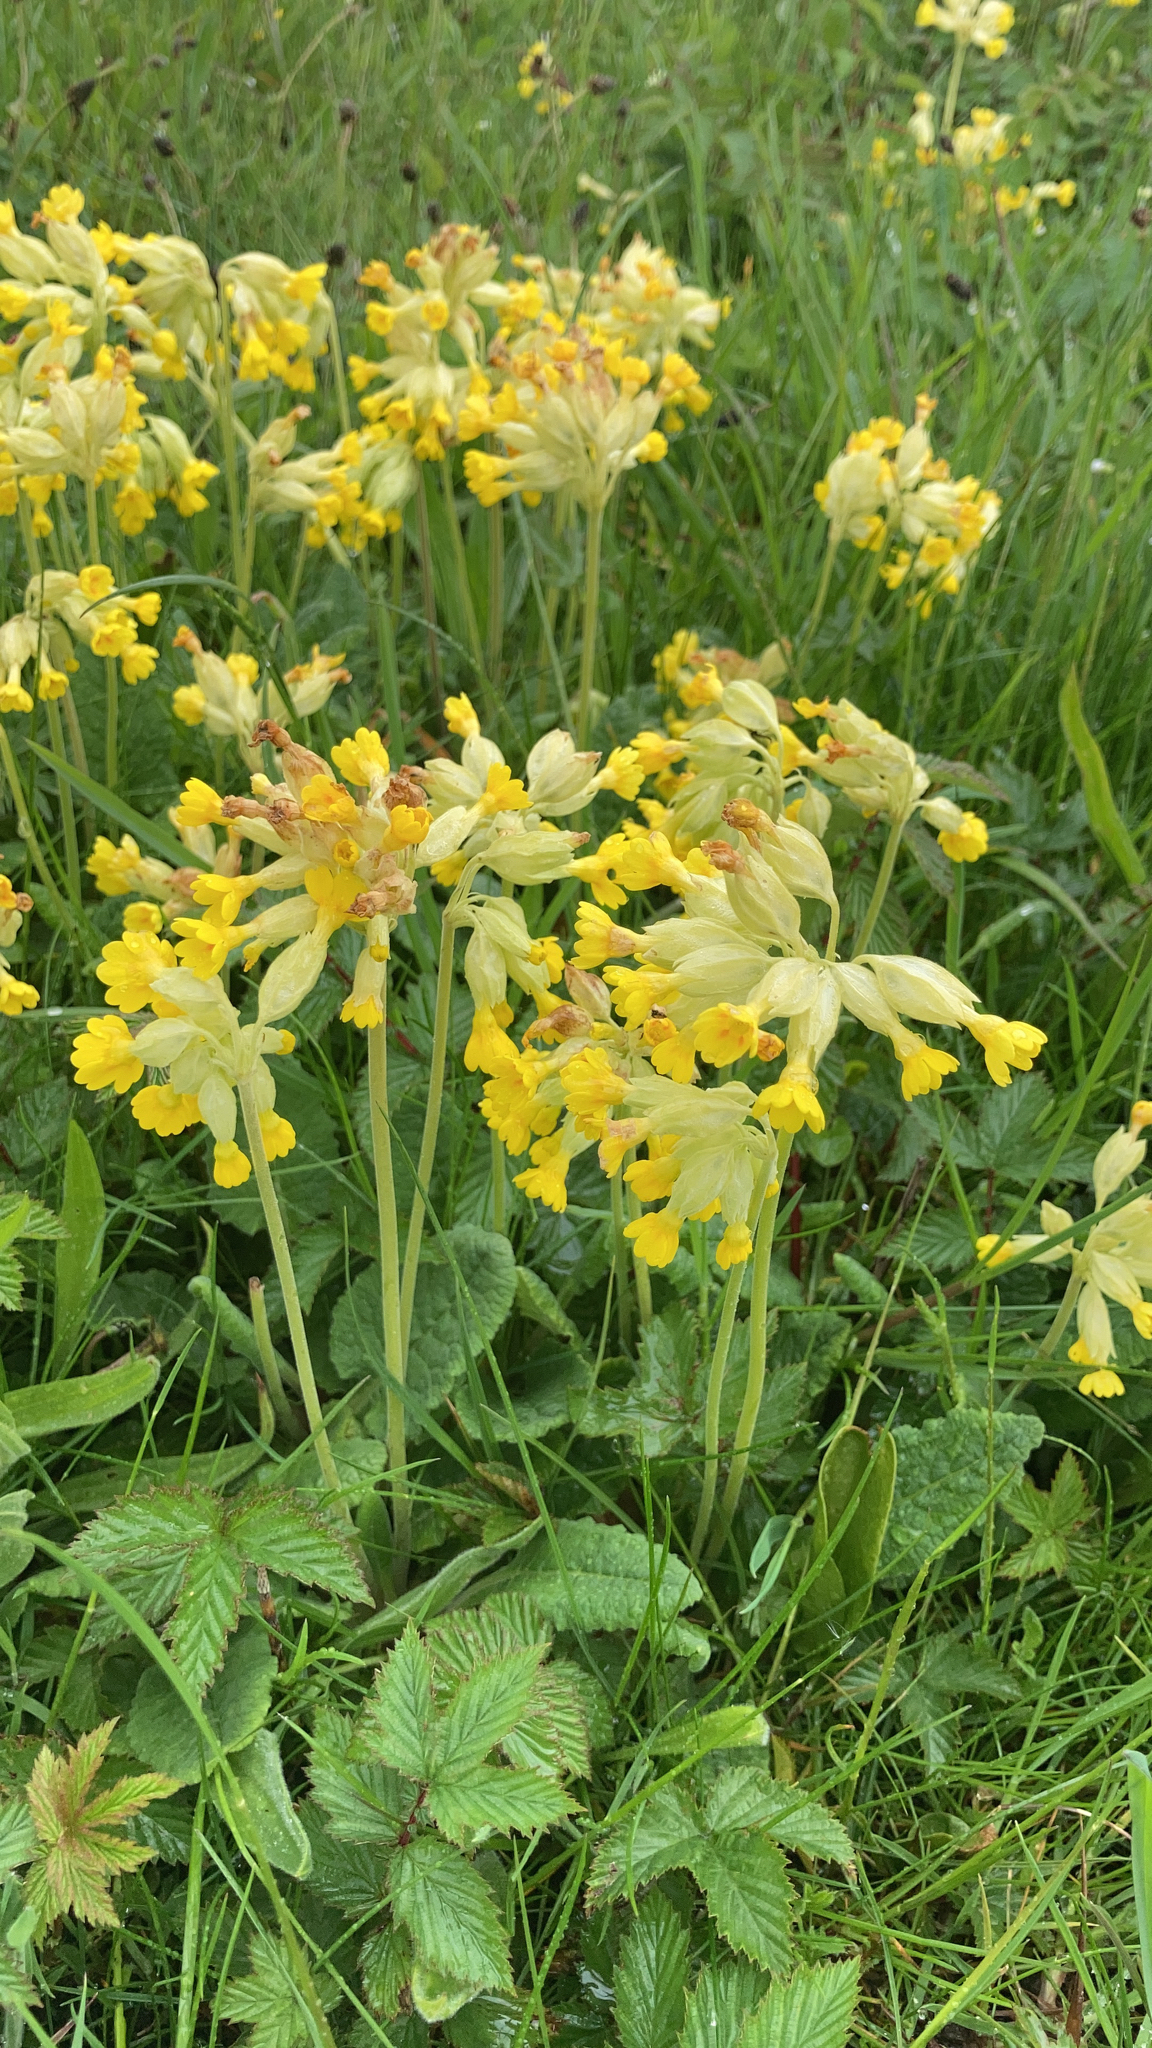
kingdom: Plantae
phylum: Tracheophyta
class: Magnoliopsida
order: Ericales
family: Primulaceae
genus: Primula
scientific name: Primula veris
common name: Cowslip
